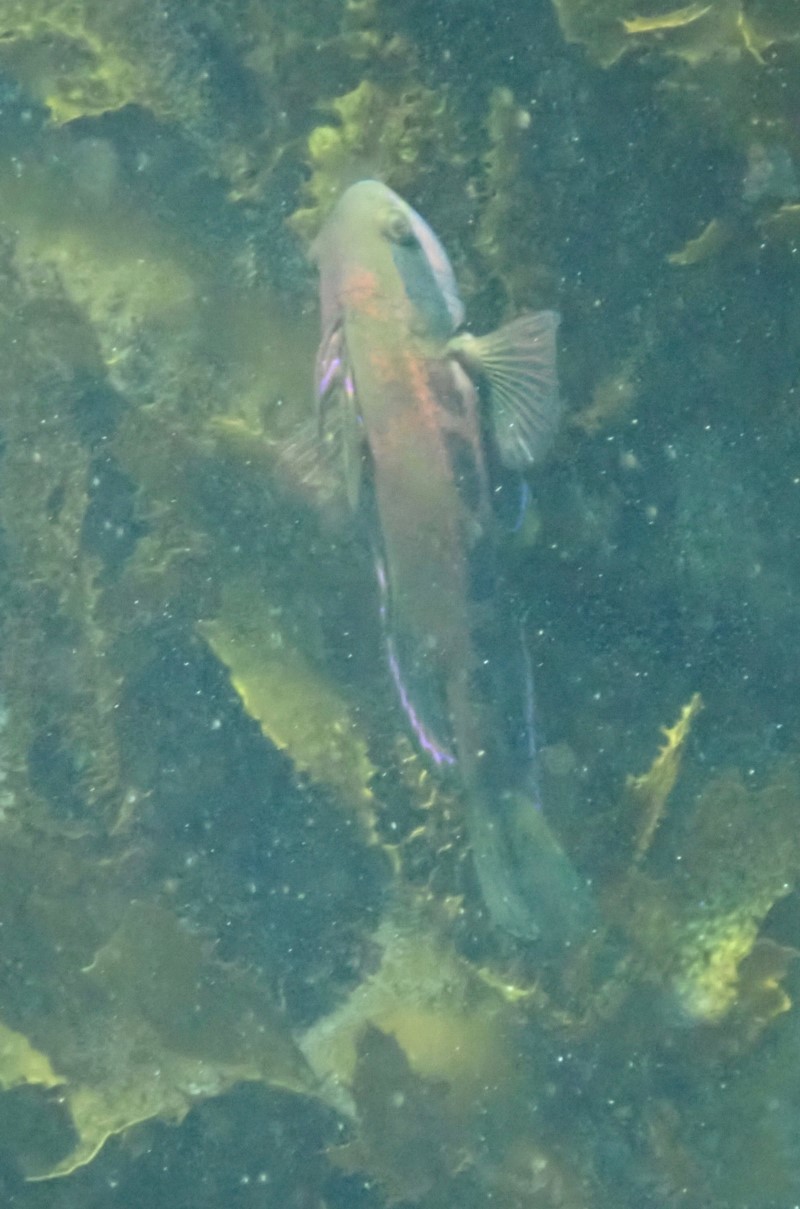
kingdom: Animalia
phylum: Chordata
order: Perciformes
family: Odacidae
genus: Heteroscarus
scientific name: Heteroscarus acroptilus
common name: Marine rainbowfish
